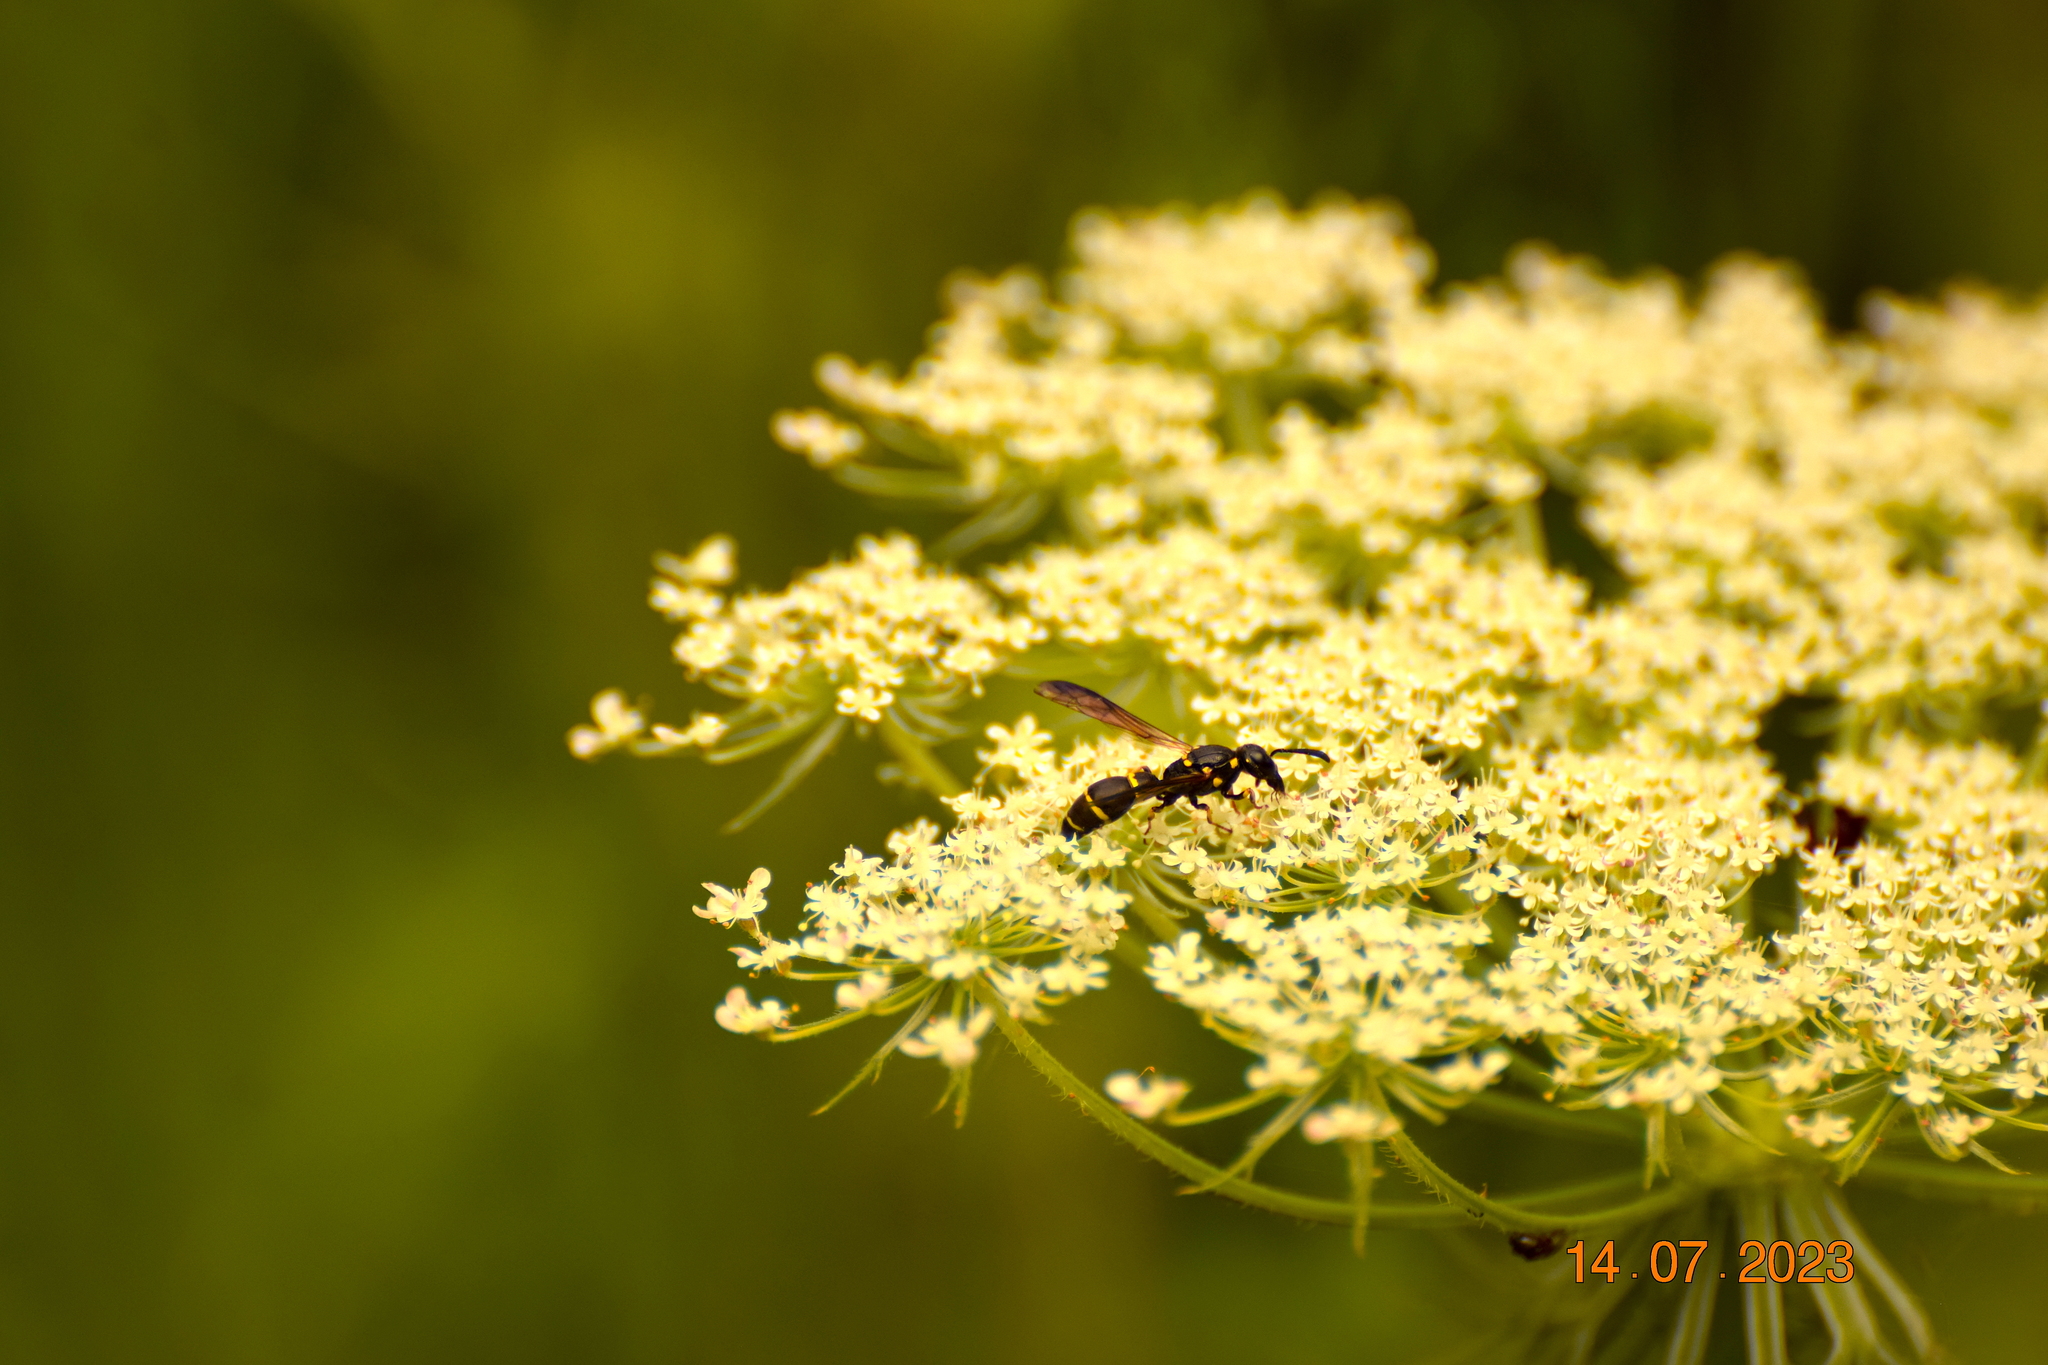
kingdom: Animalia
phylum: Arthropoda
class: Insecta
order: Hymenoptera
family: Eumenidae
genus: Symmorphus
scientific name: Symmorphus
